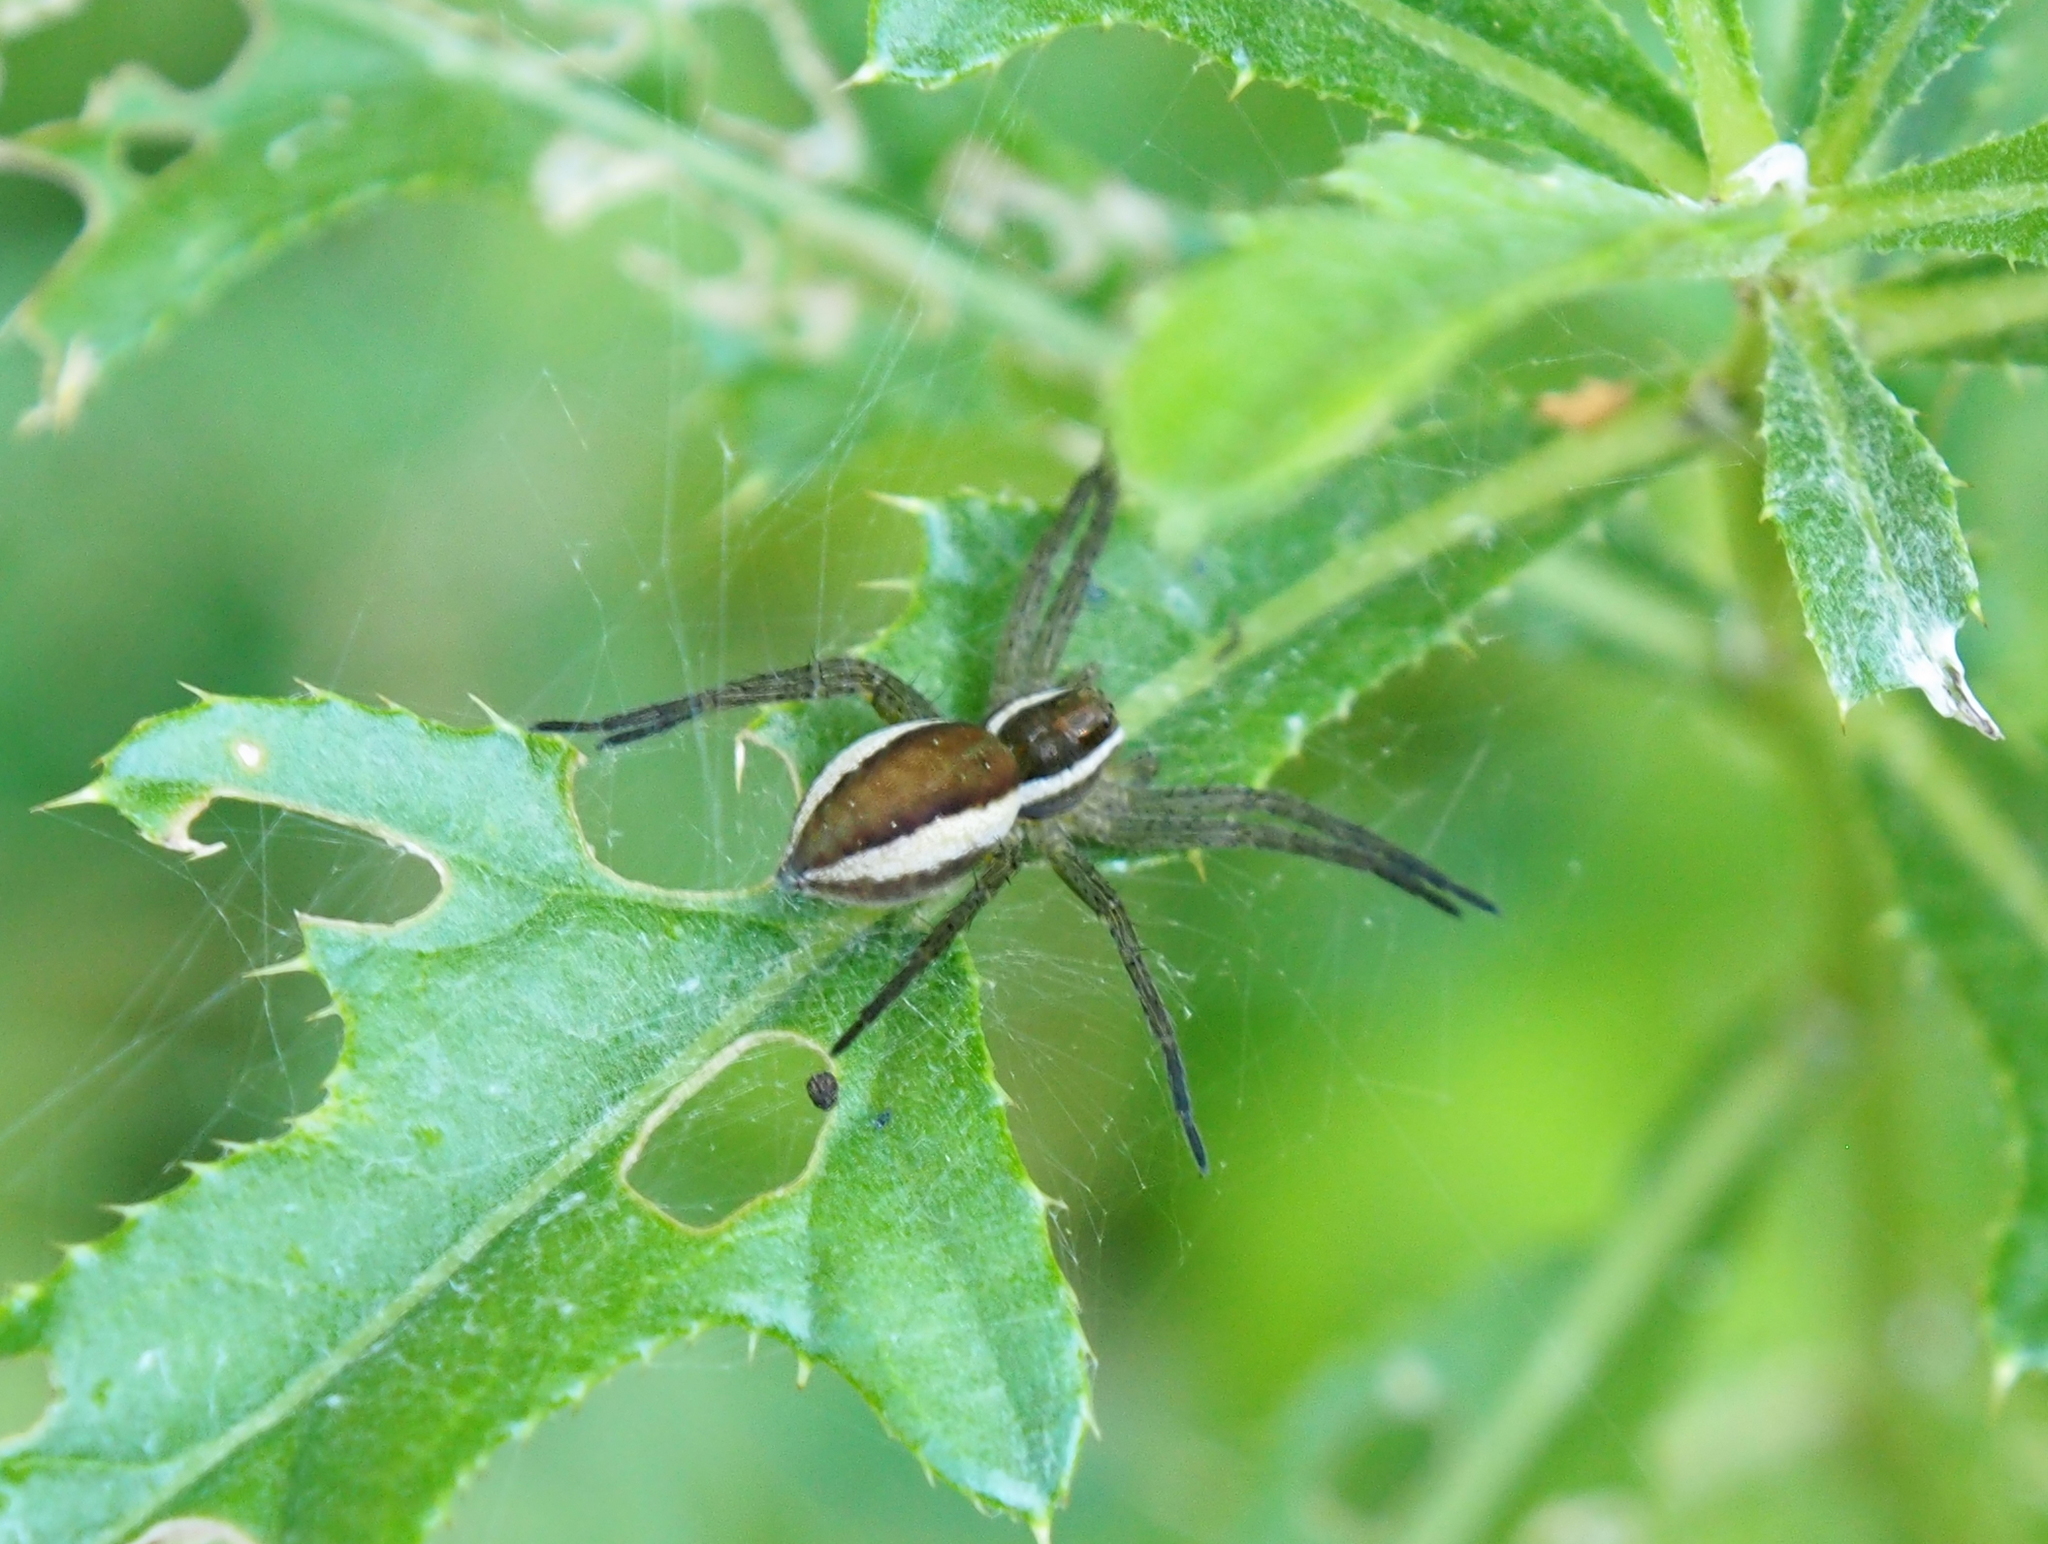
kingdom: Animalia
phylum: Arthropoda
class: Arachnida
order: Araneae
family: Pisauridae
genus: Dolomedes
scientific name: Dolomedes fimbriatus
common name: Raft spider
